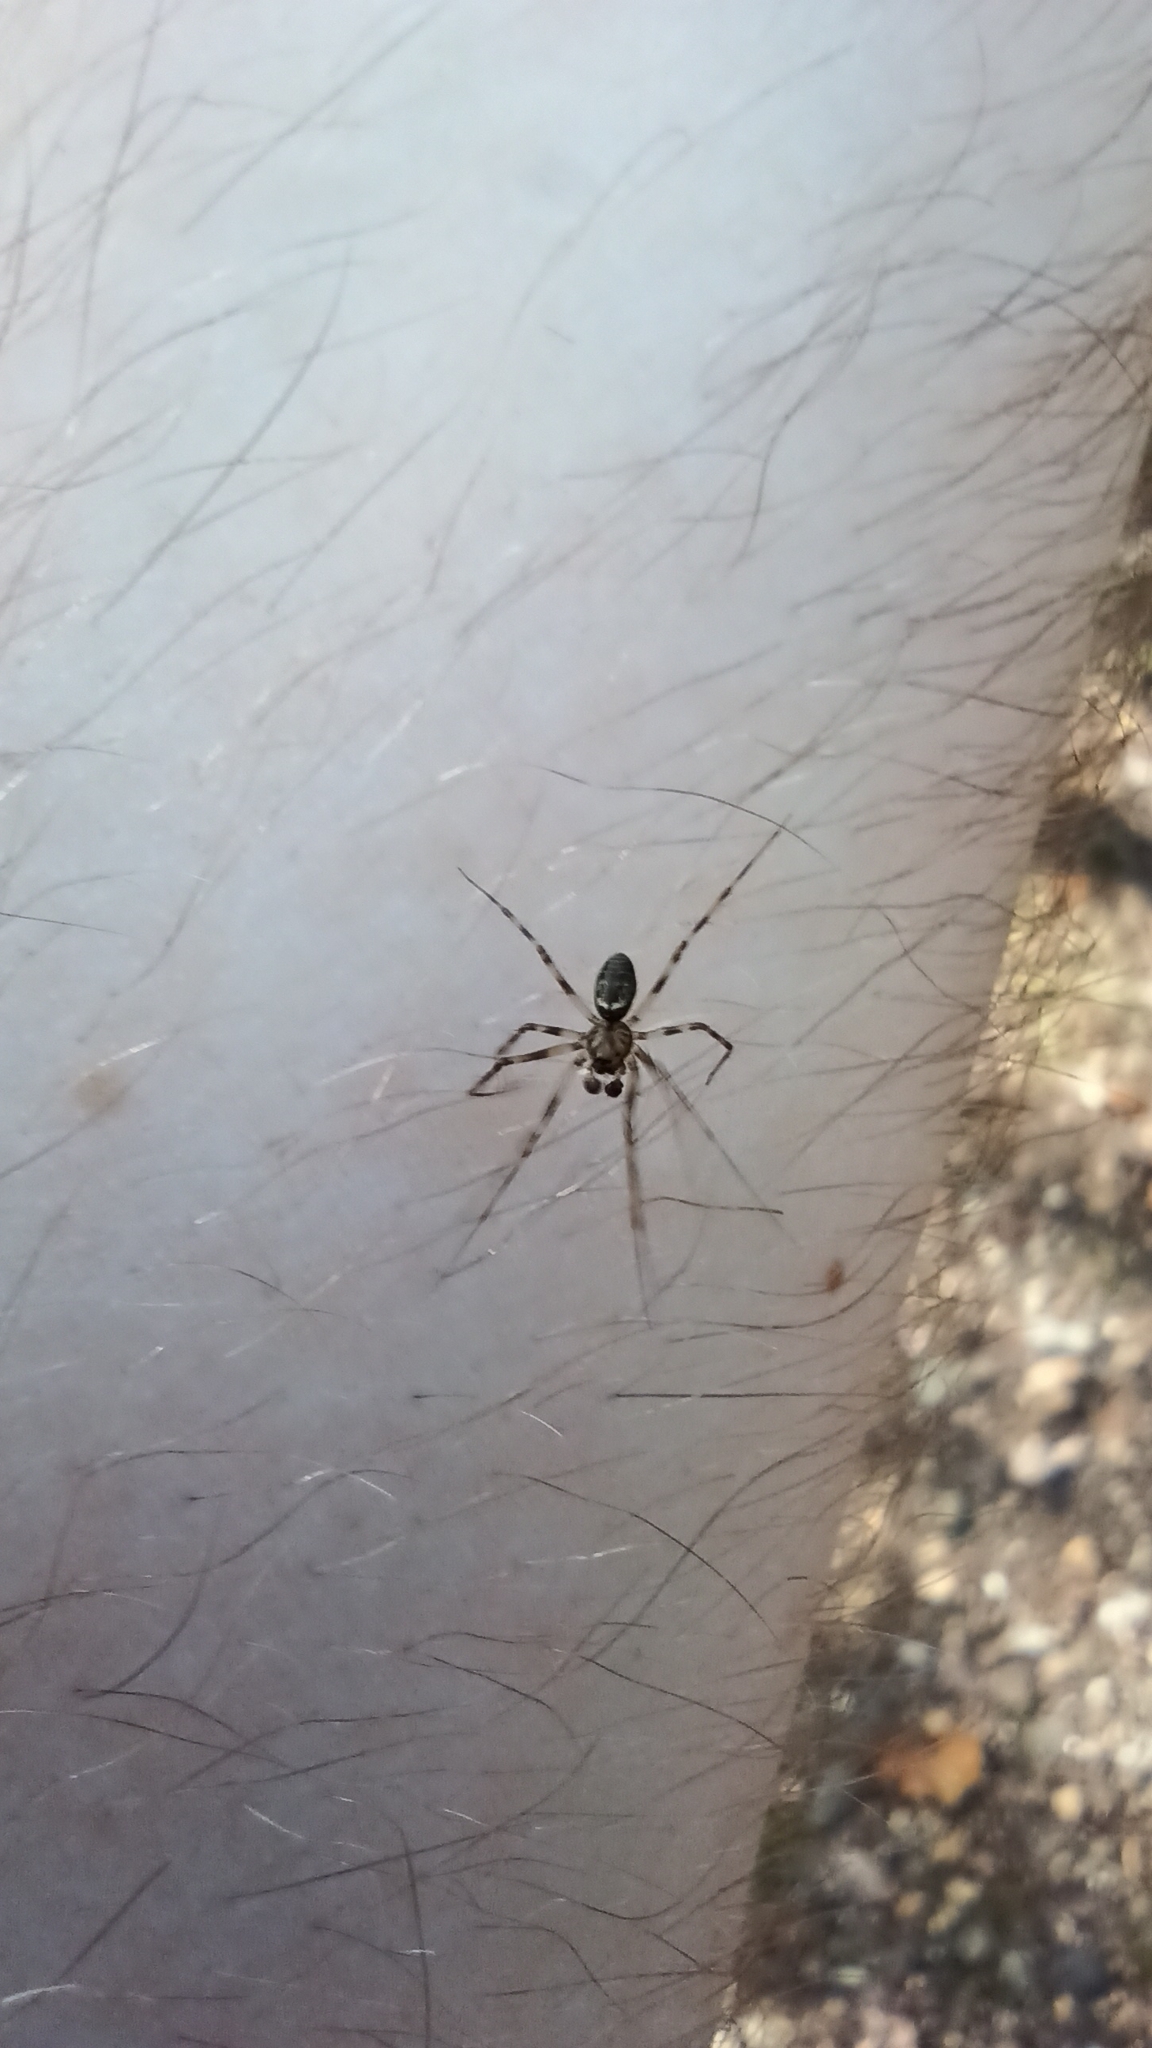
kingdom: Animalia
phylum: Arthropoda
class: Arachnida
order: Araneae
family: Linyphiidae
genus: Drapetisca
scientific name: Drapetisca socialis
